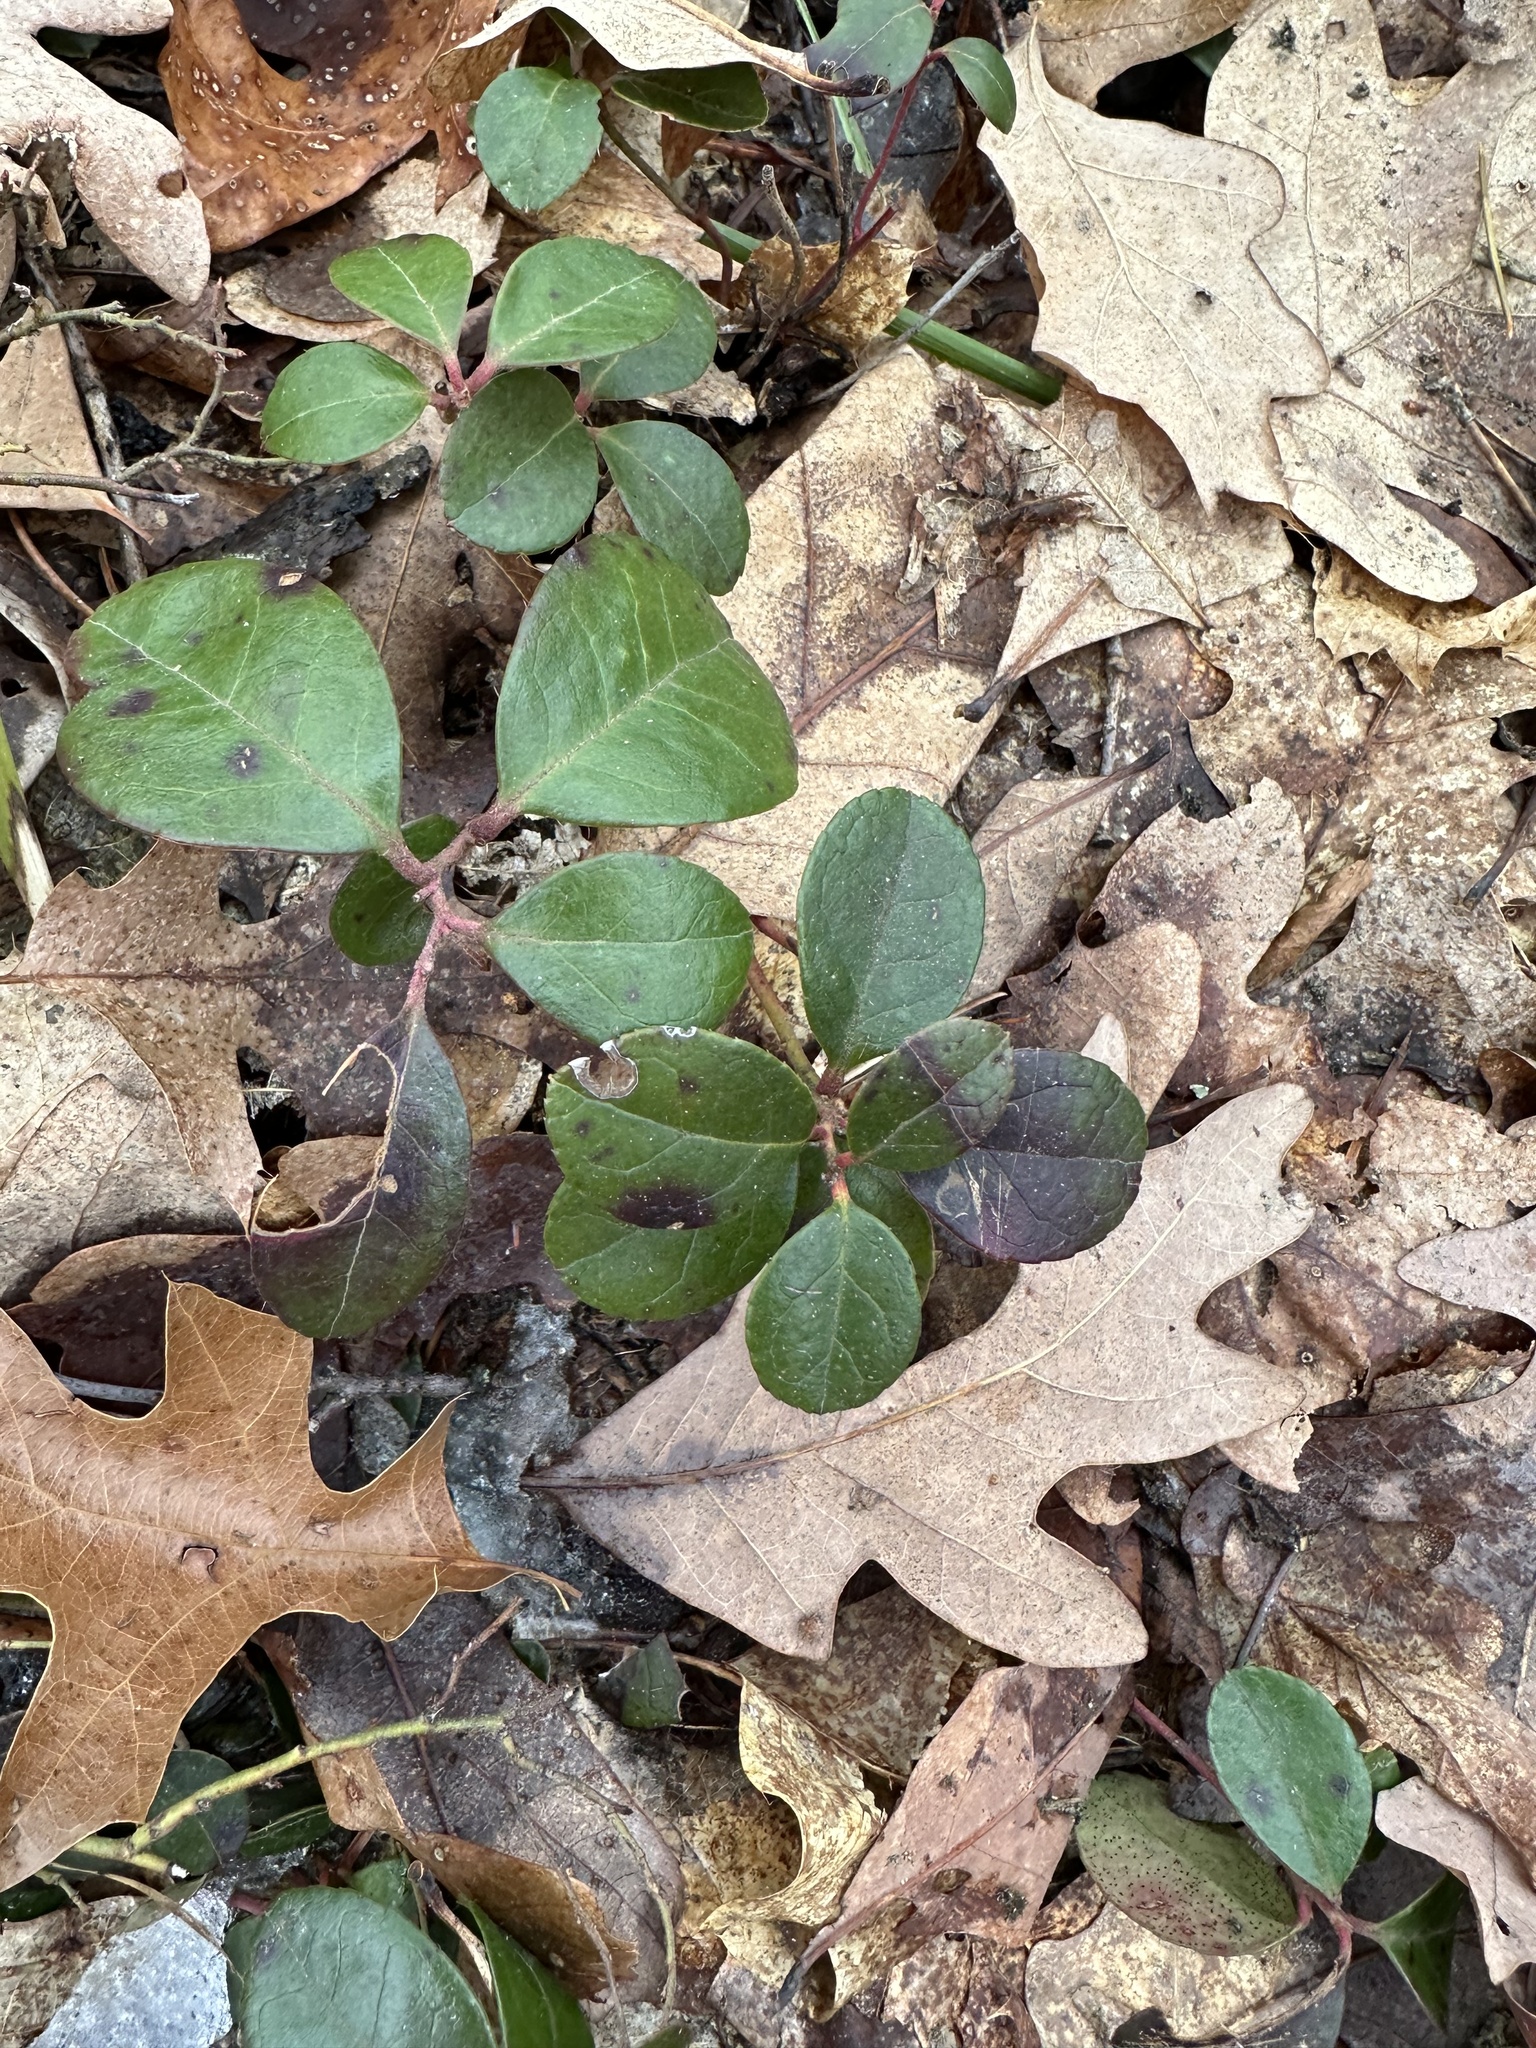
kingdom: Plantae
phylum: Tracheophyta
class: Magnoliopsida
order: Ericales
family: Ericaceae
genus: Gaultheria
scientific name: Gaultheria procumbens
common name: Checkerberry
